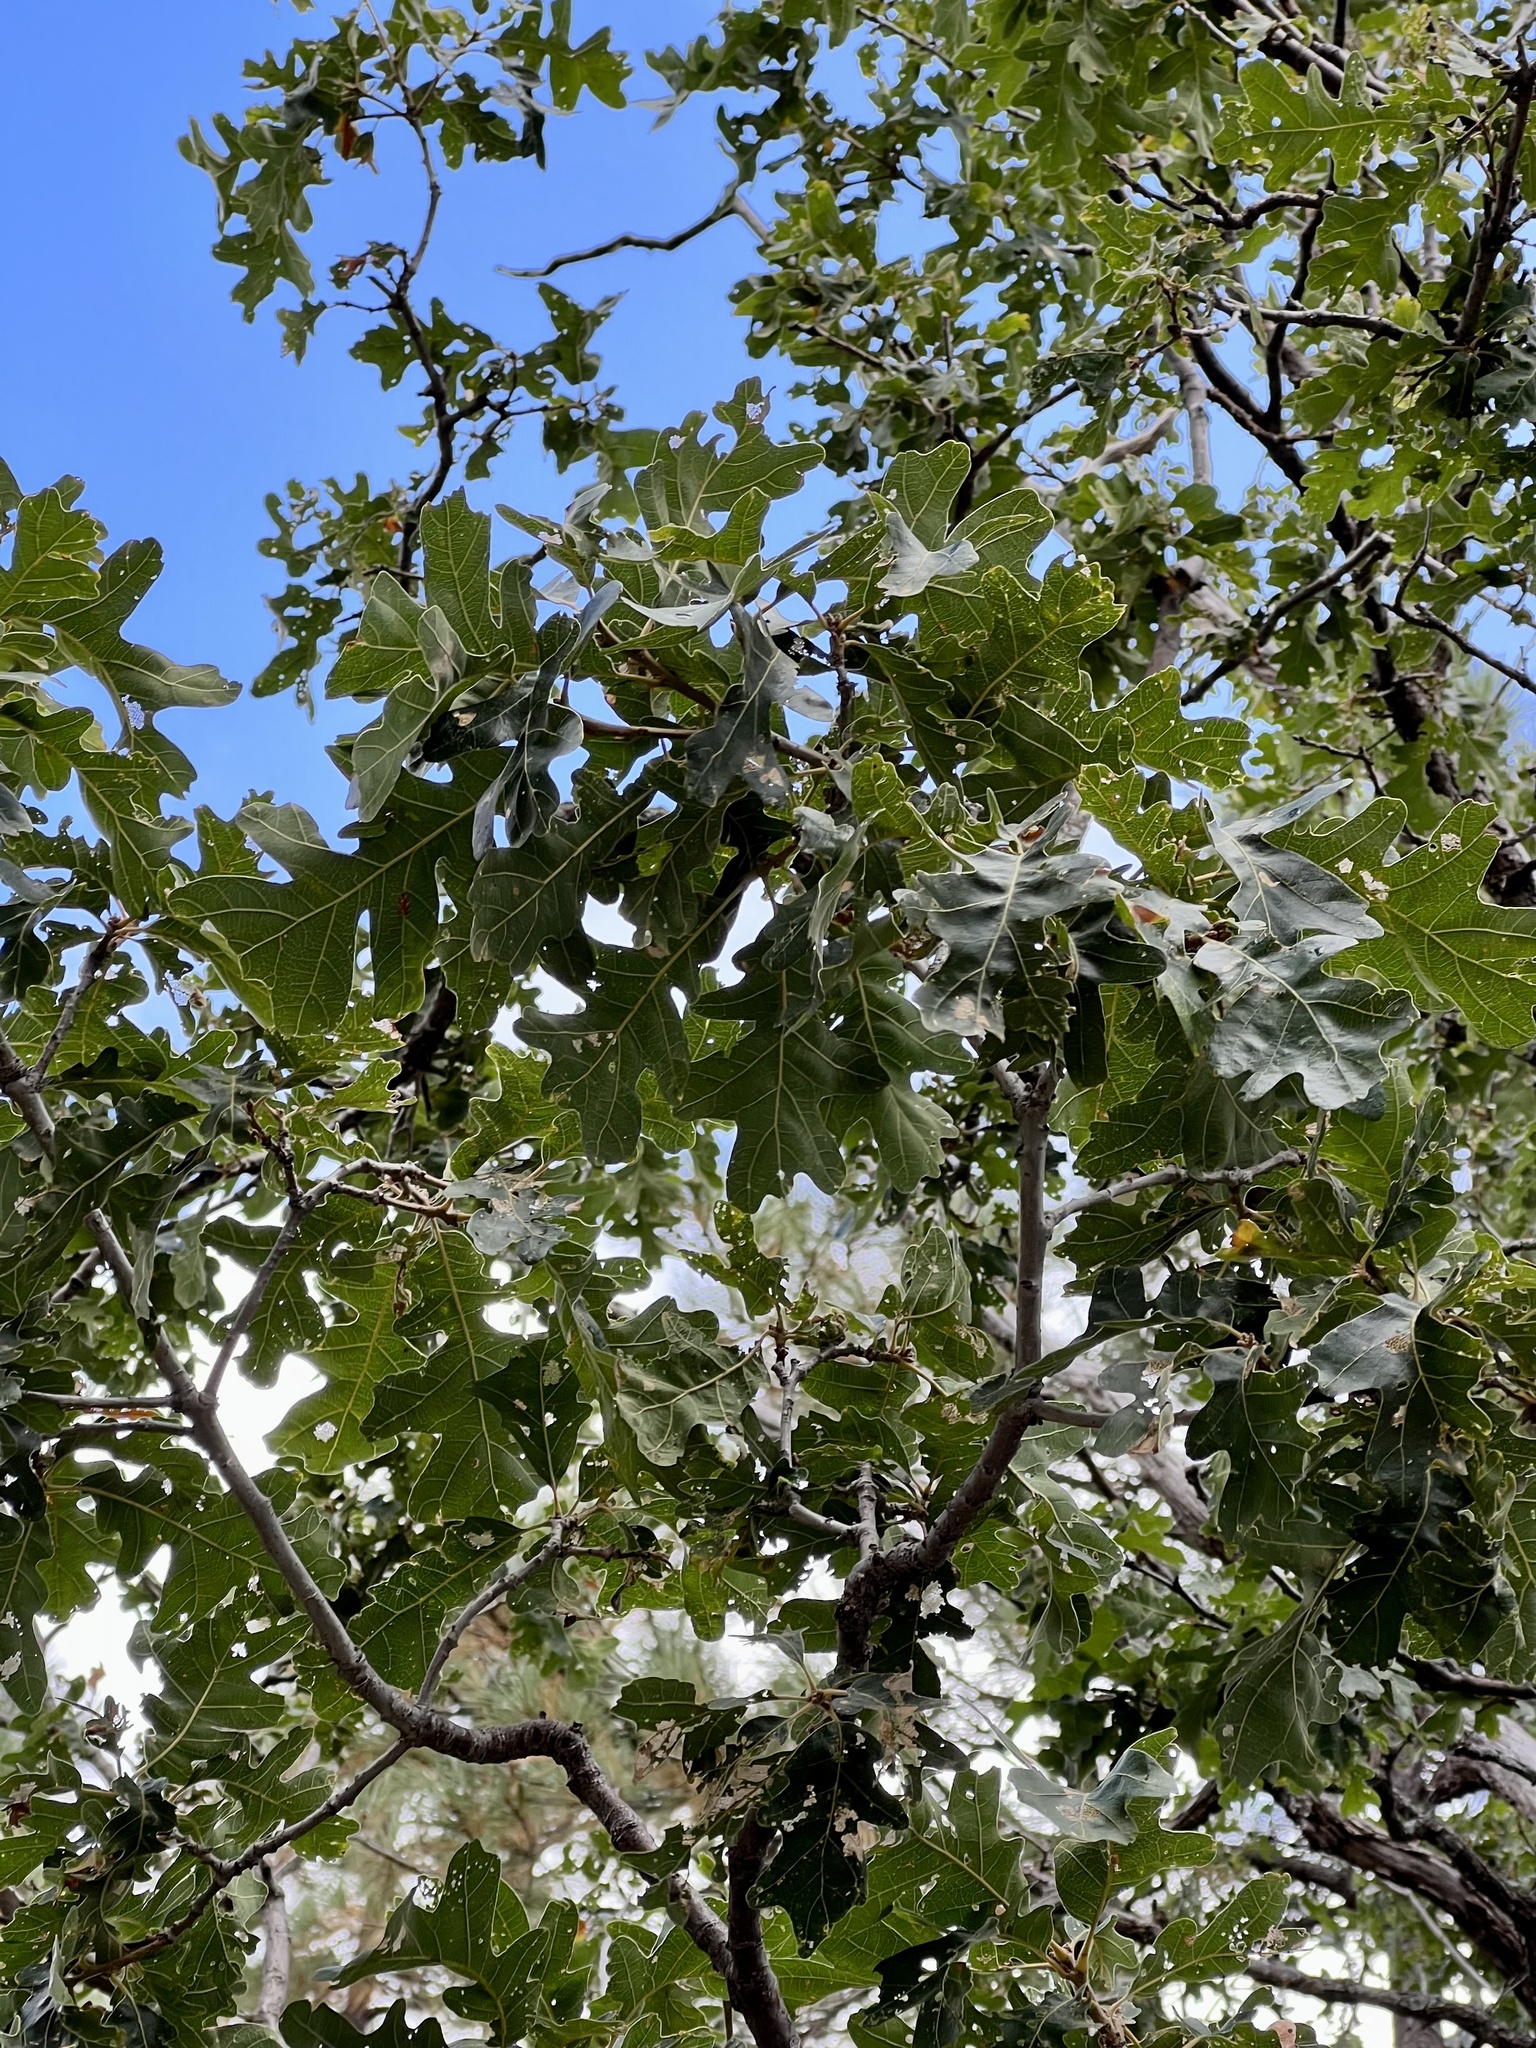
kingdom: Plantae
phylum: Tracheophyta
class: Magnoliopsida
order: Fagales
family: Fagaceae
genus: Quercus
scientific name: Quercus gambelii
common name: Gambel oak
